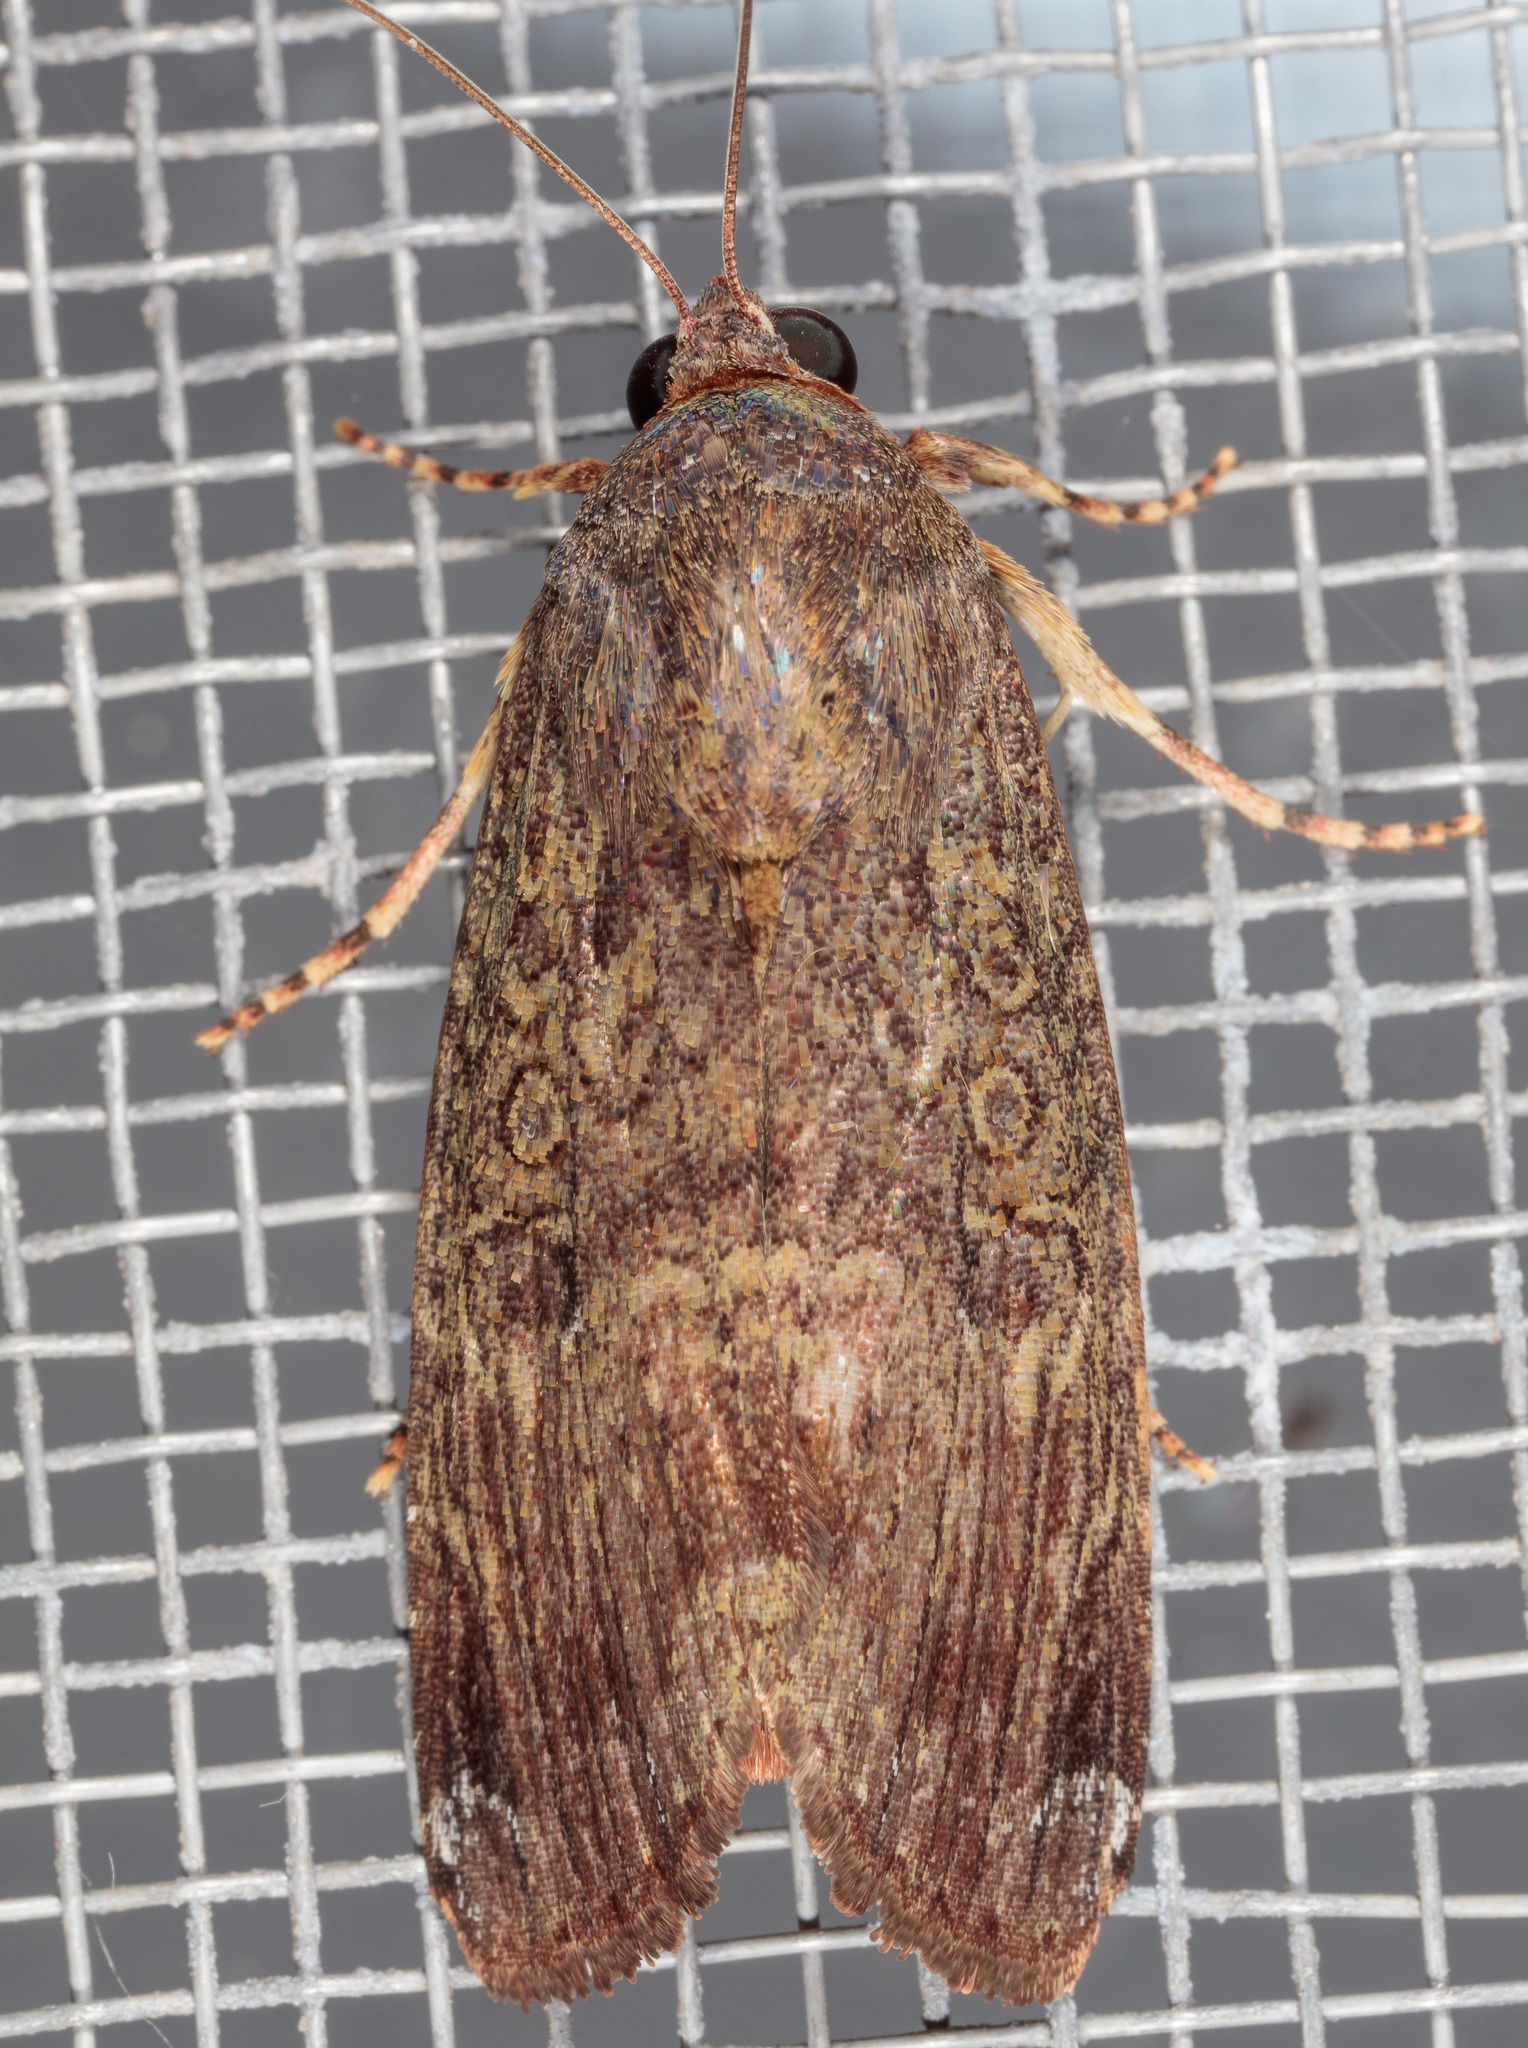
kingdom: Animalia
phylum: Arthropoda
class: Insecta
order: Lepidoptera
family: Noctuidae
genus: Magusa
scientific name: Magusa divaricata
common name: Orb narrow-winged moth
